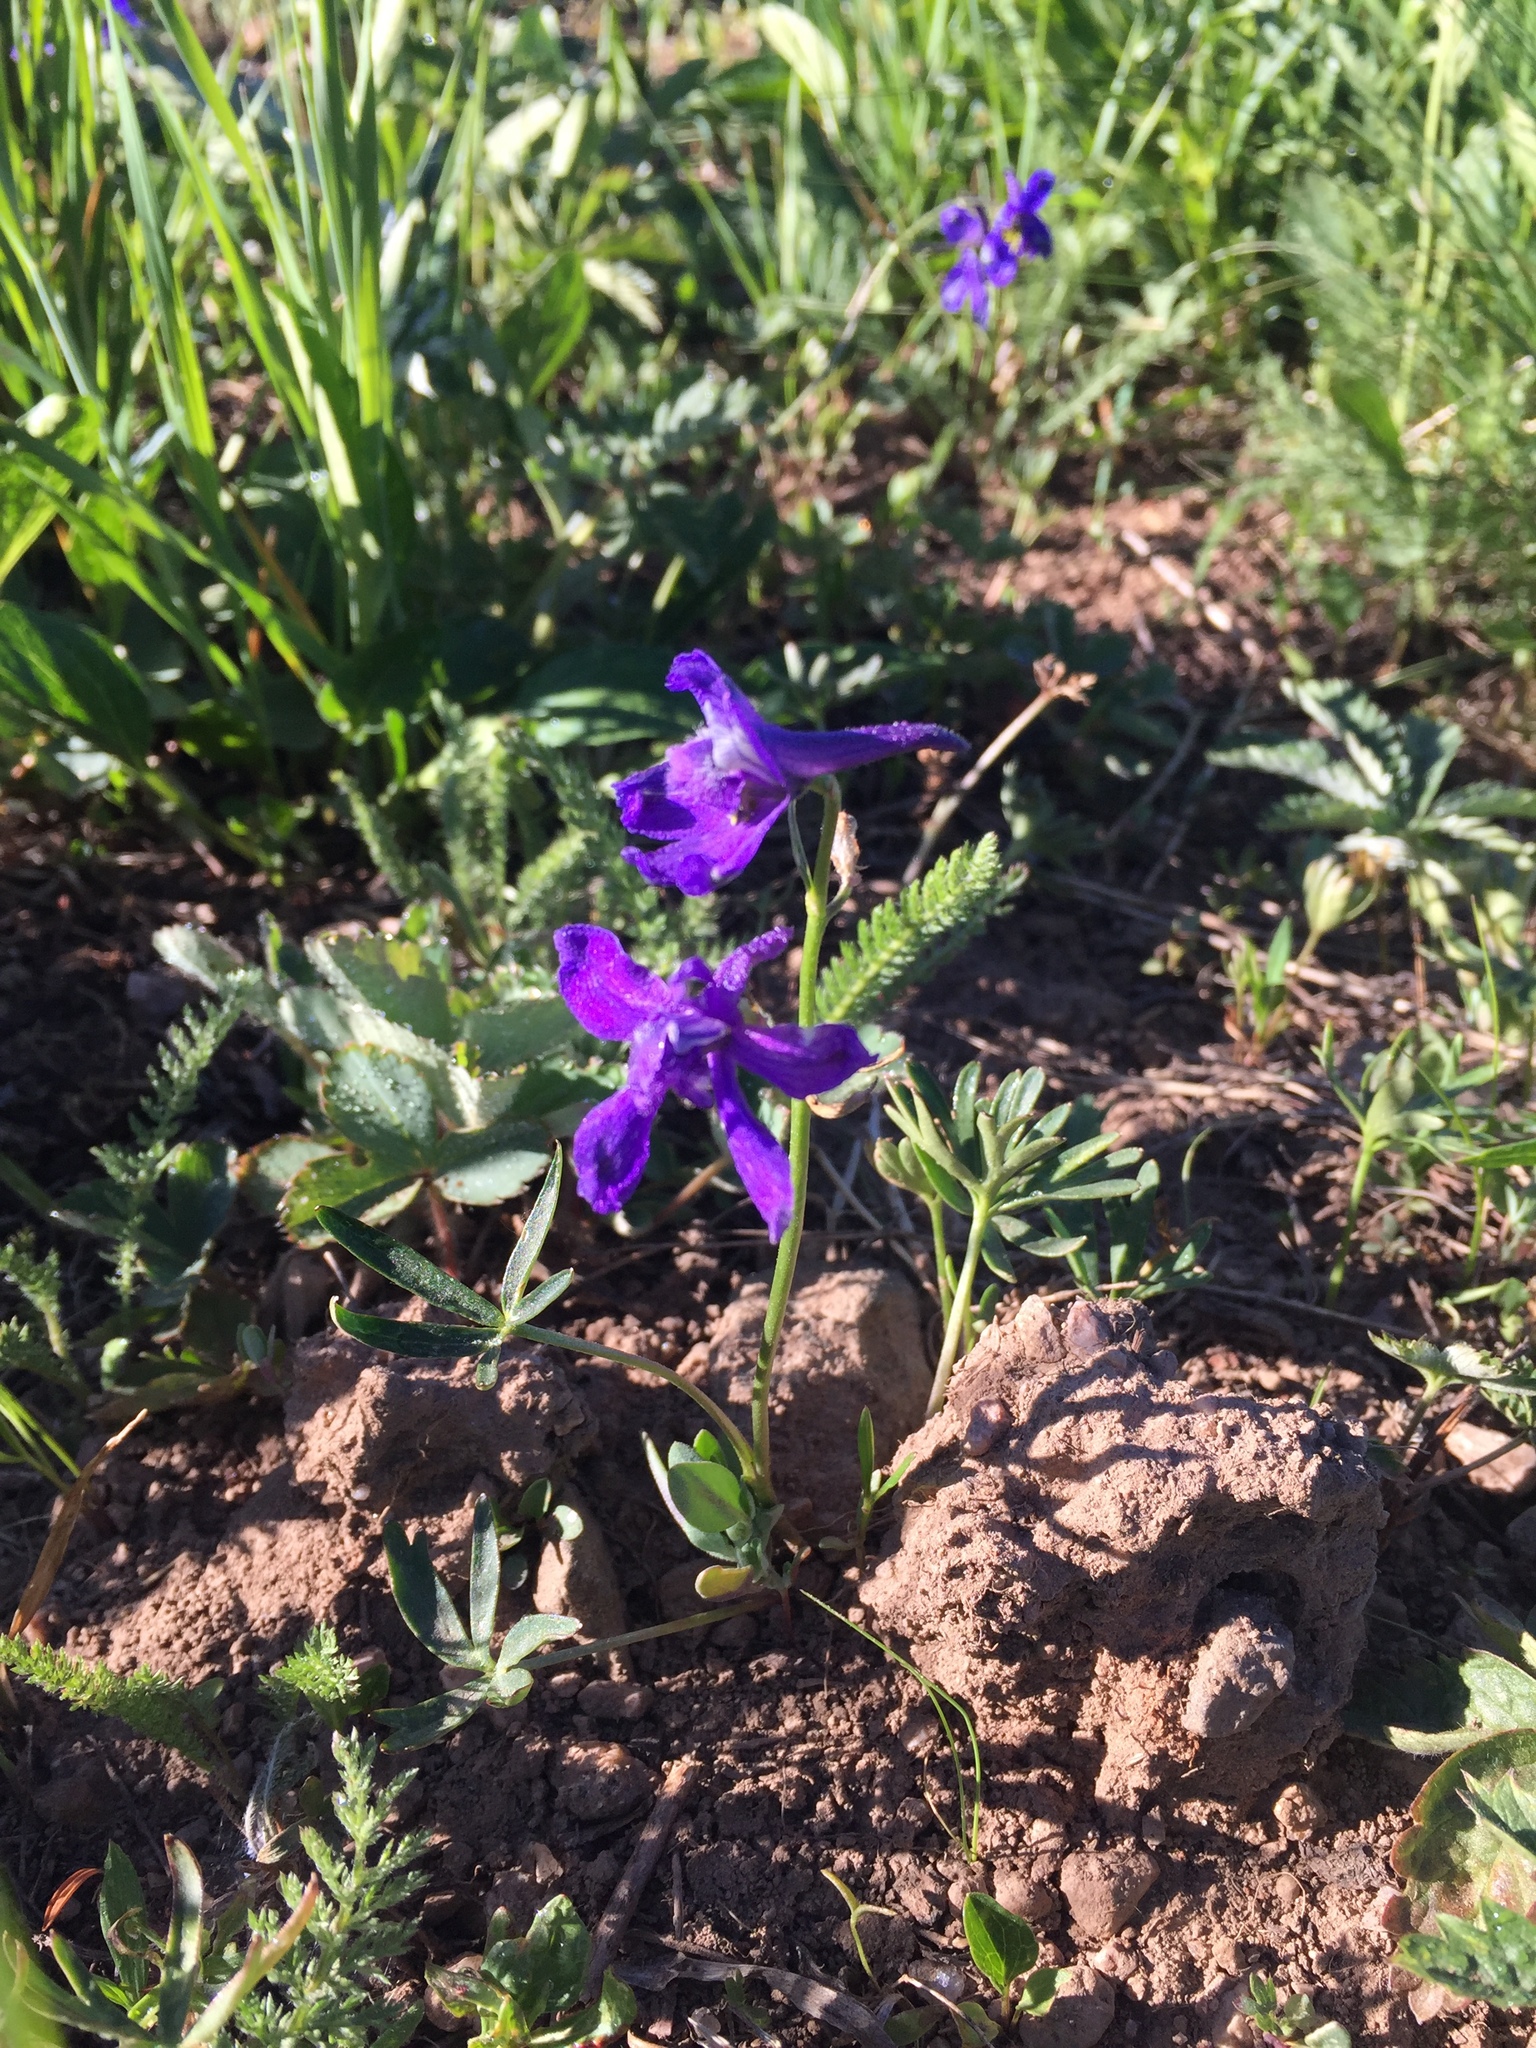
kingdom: Plantae
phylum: Tracheophyta
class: Magnoliopsida
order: Ranunculales
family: Ranunculaceae
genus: Delphinium
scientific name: Delphinium nuttallianum
